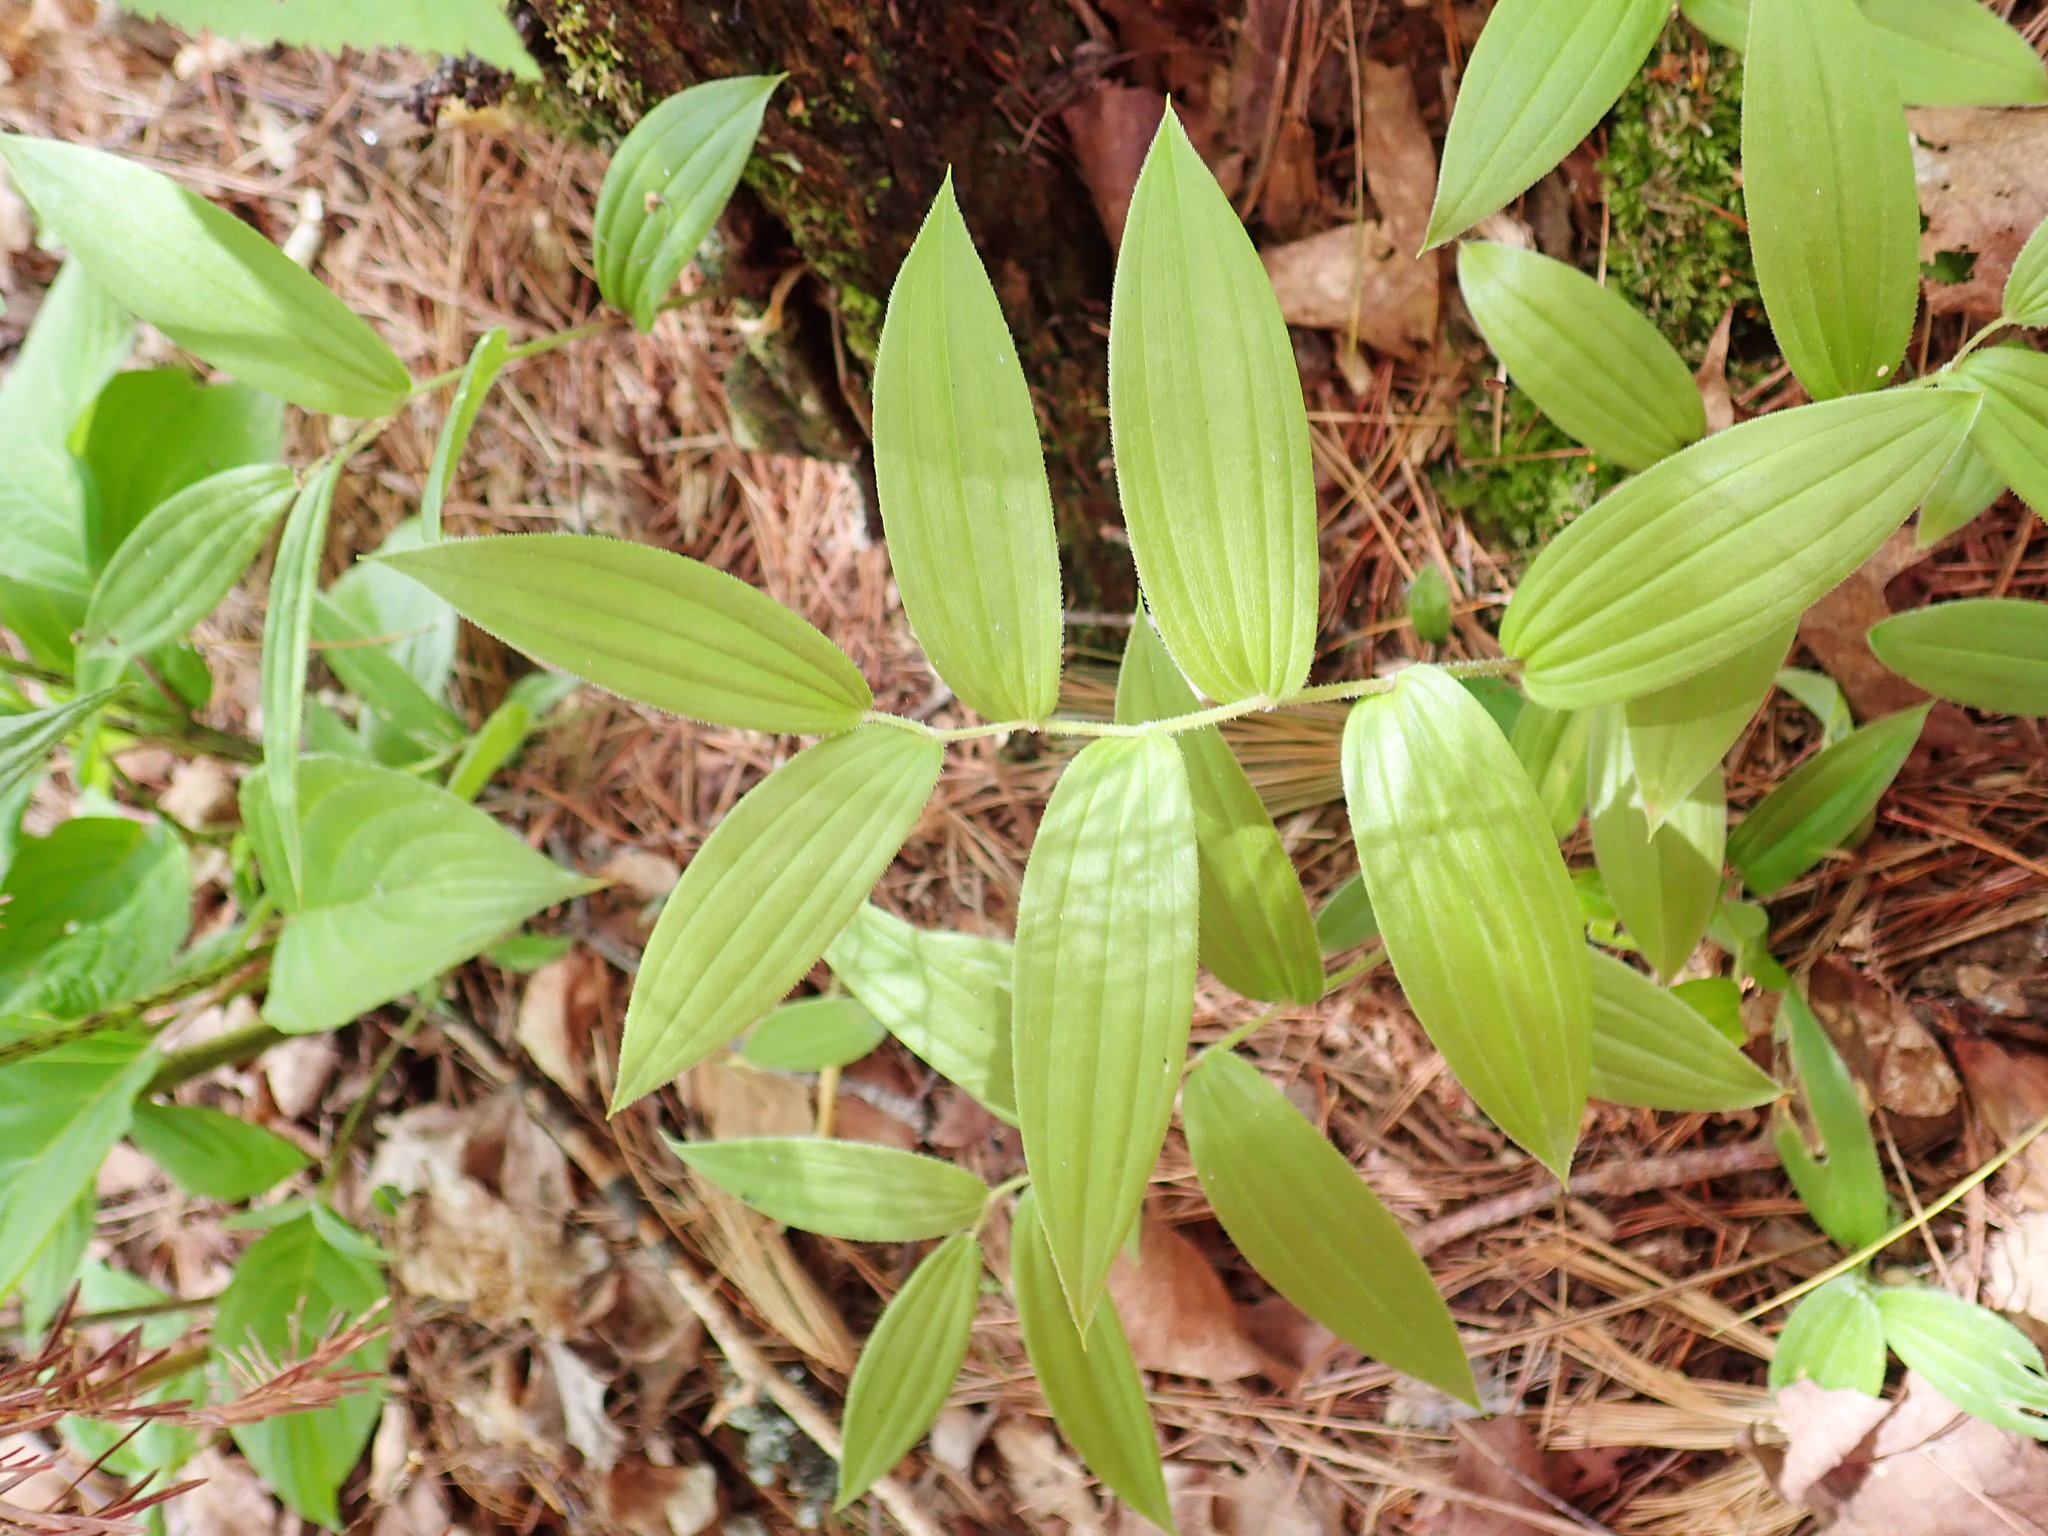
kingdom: Plantae
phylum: Tracheophyta
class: Liliopsida
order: Liliales
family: Liliaceae
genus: Streptopus
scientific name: Streptopus lanceolatus
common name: Rose mandarin
